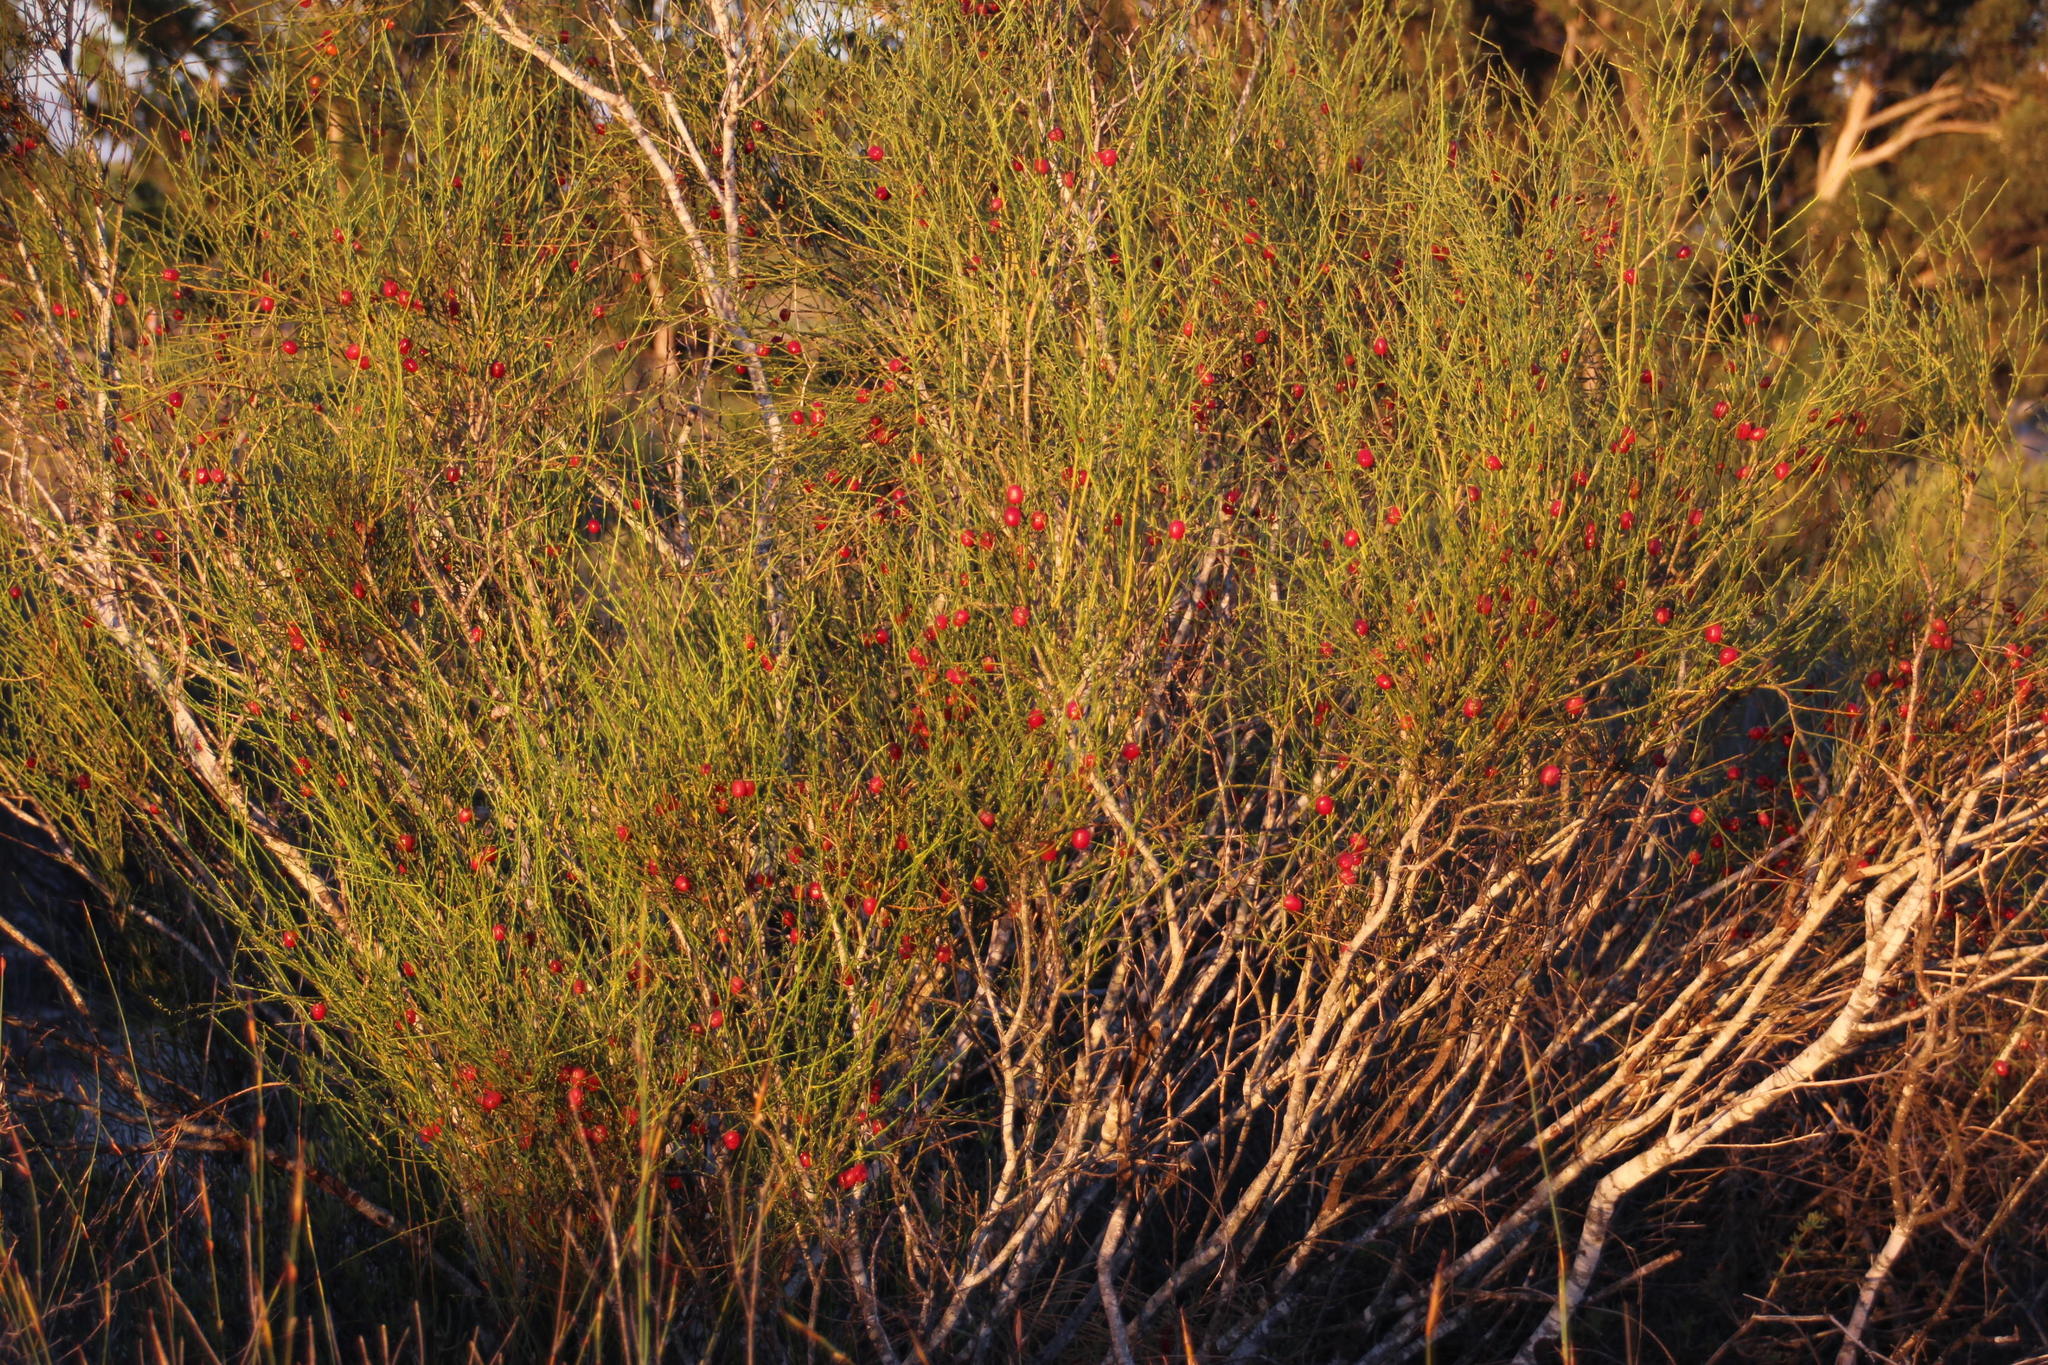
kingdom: Plantae
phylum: Tracheophyta
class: Magnoliopsida
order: Fabales
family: Polygalaceae
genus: Muraltia
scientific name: Muraltia scoparia
